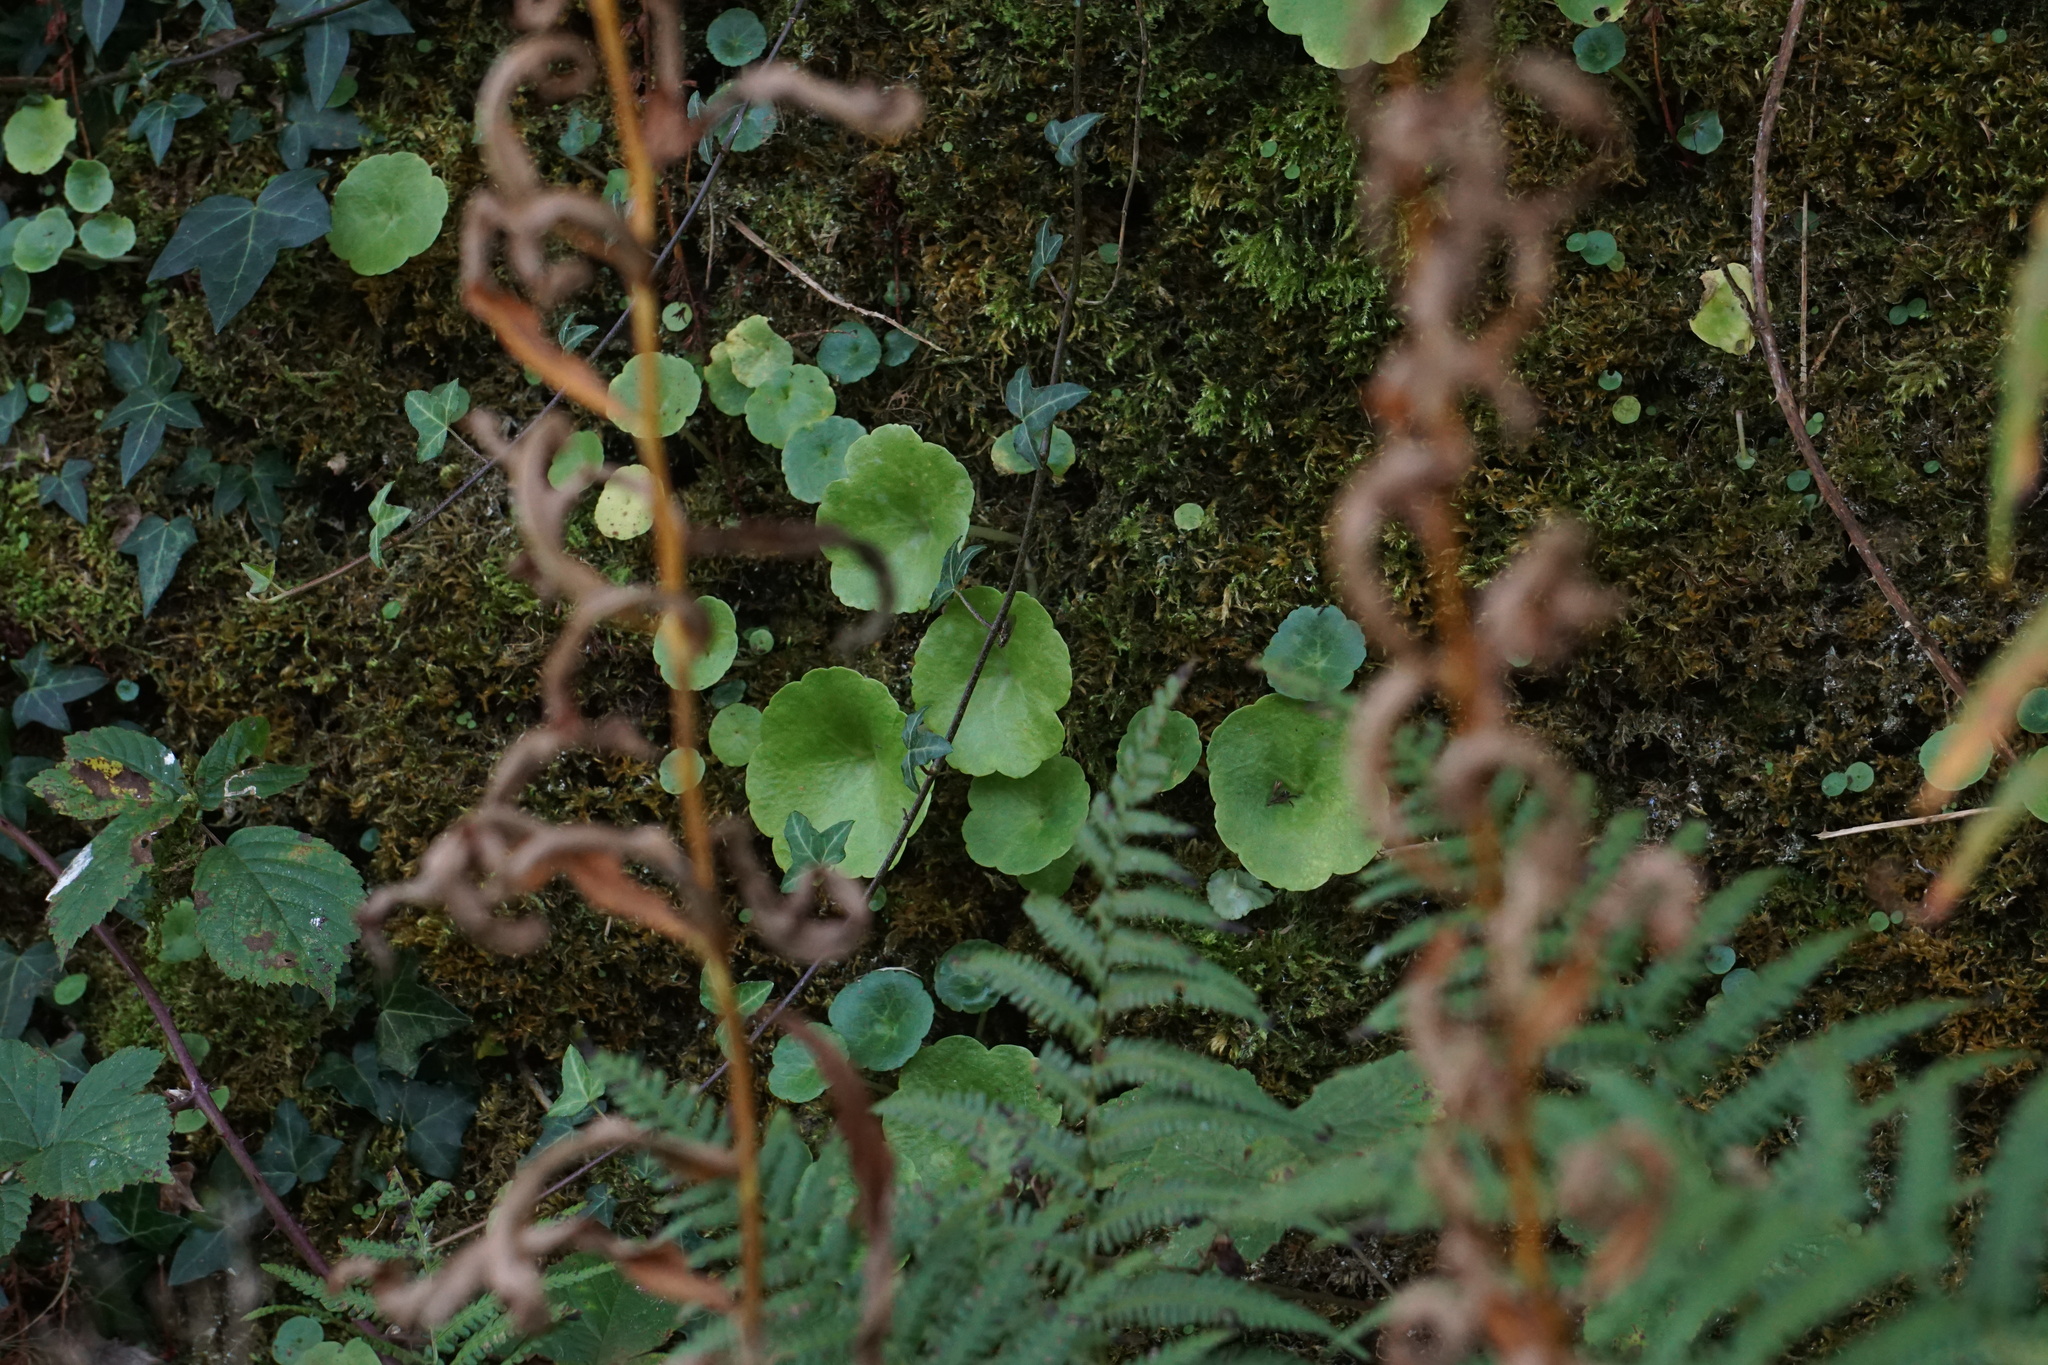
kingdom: Plantae
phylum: Tracheophyta
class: Magnoliopsida
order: Saxifragales
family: Crassulaceae
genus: Umbilicus
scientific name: Umbilicus rupestris
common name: Navelwort
